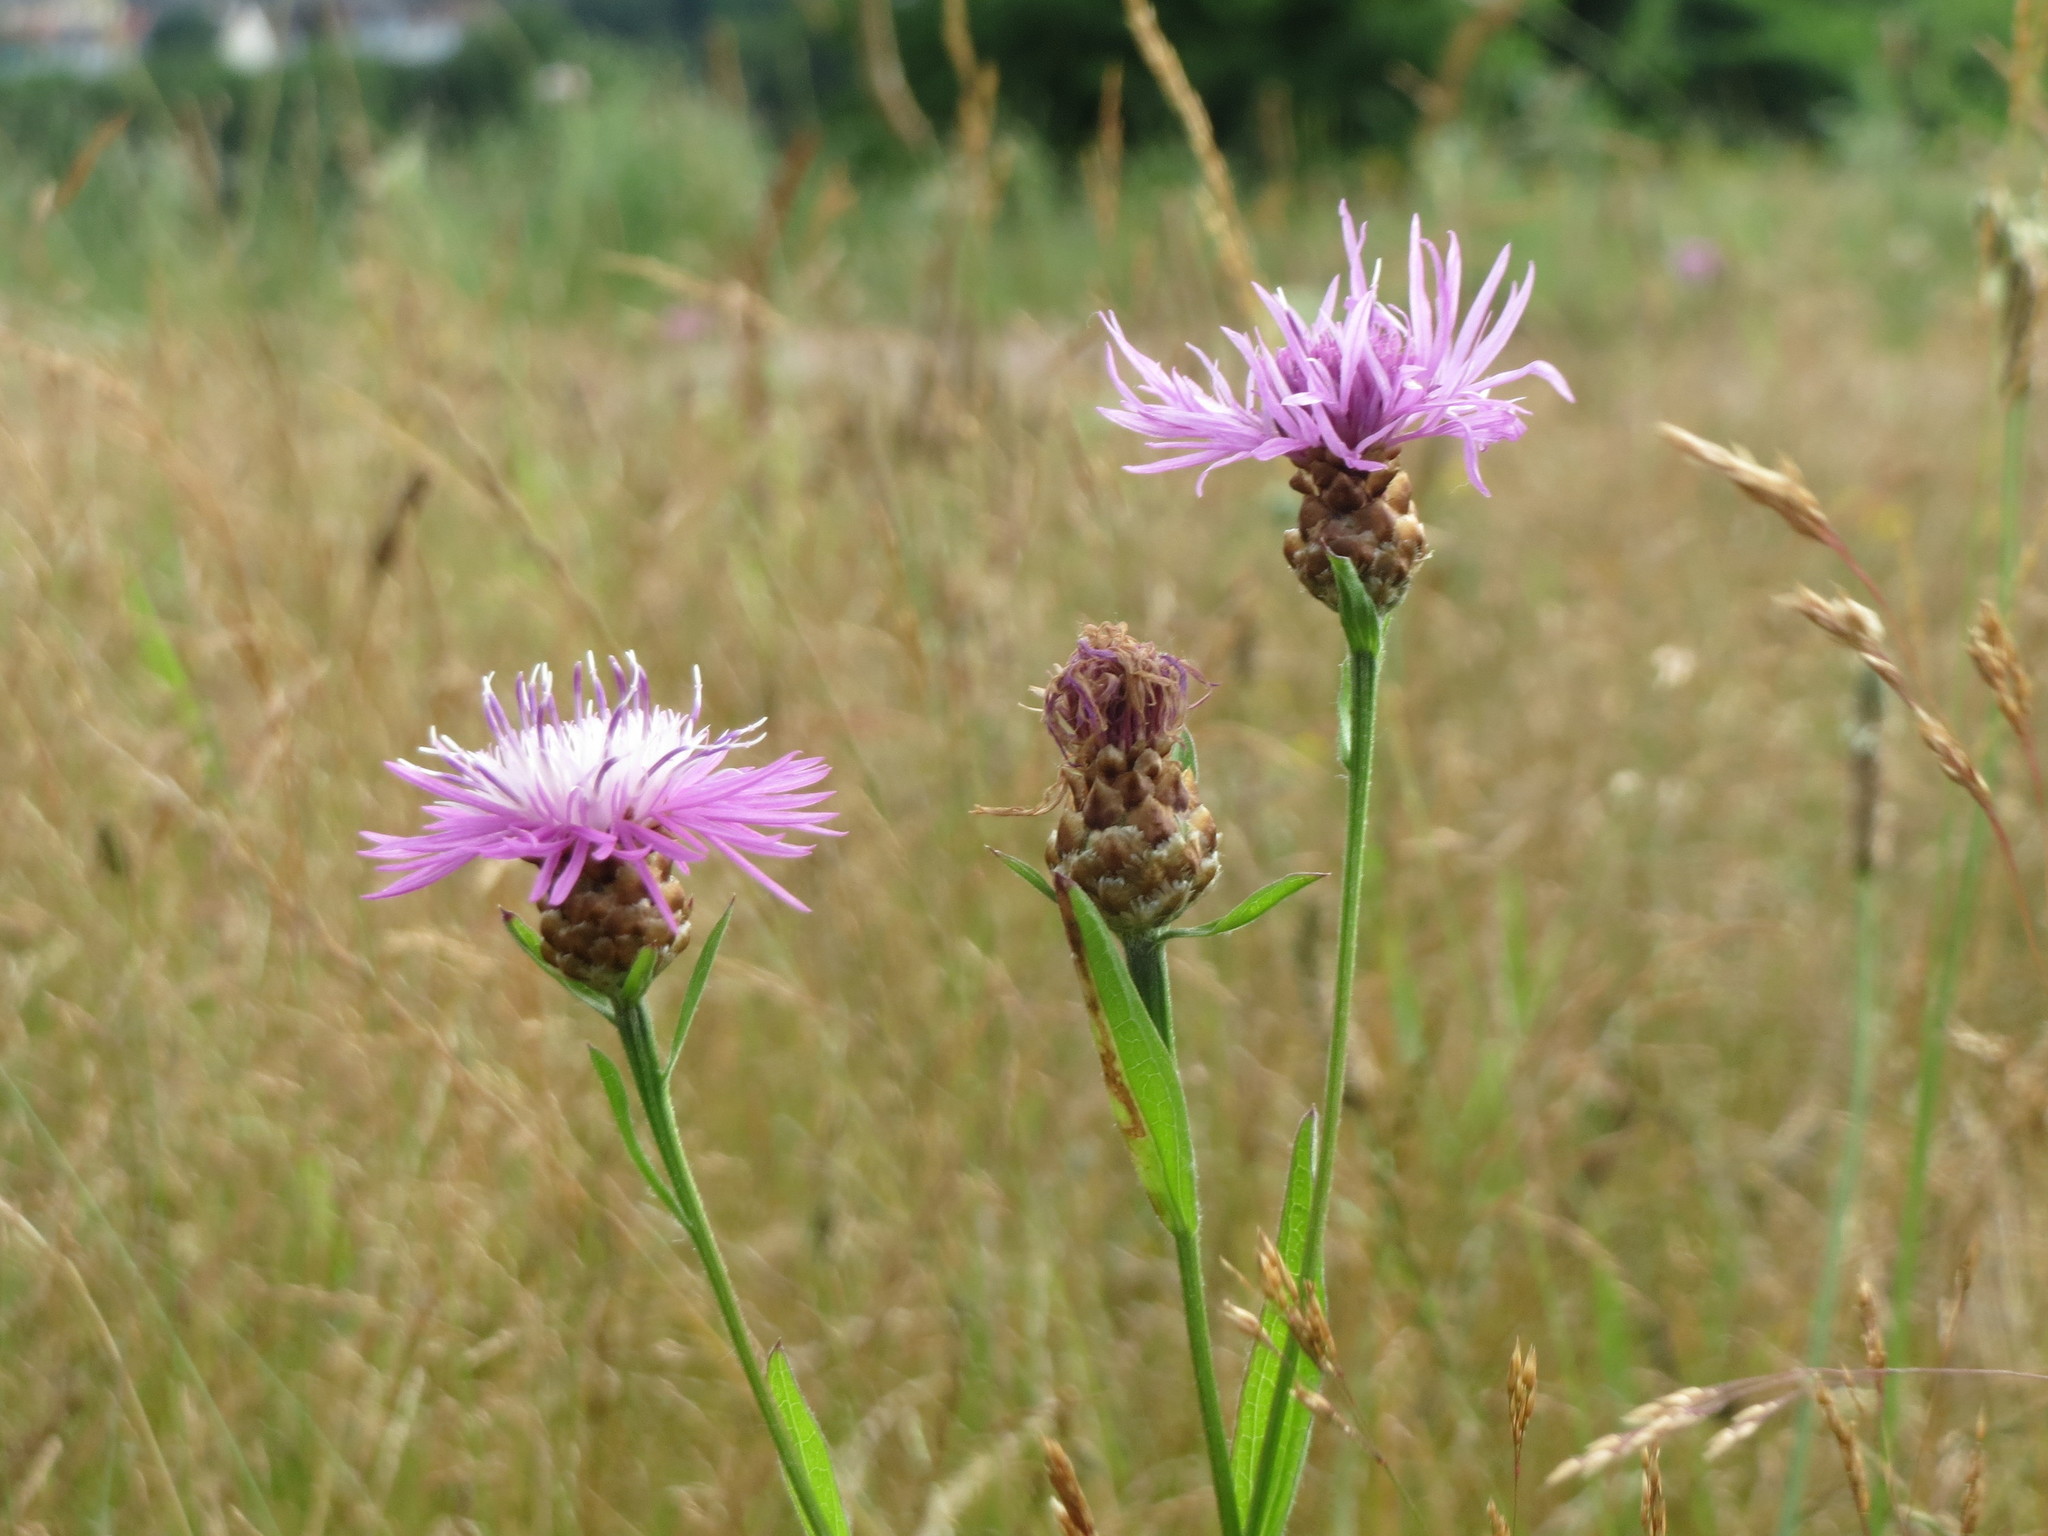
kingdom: Plantae
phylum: Tracheophyta
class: Magnoliopsida
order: Asterales
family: Asteraceae
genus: Centaurea
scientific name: Centaurea jacea
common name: Brown knapweed
